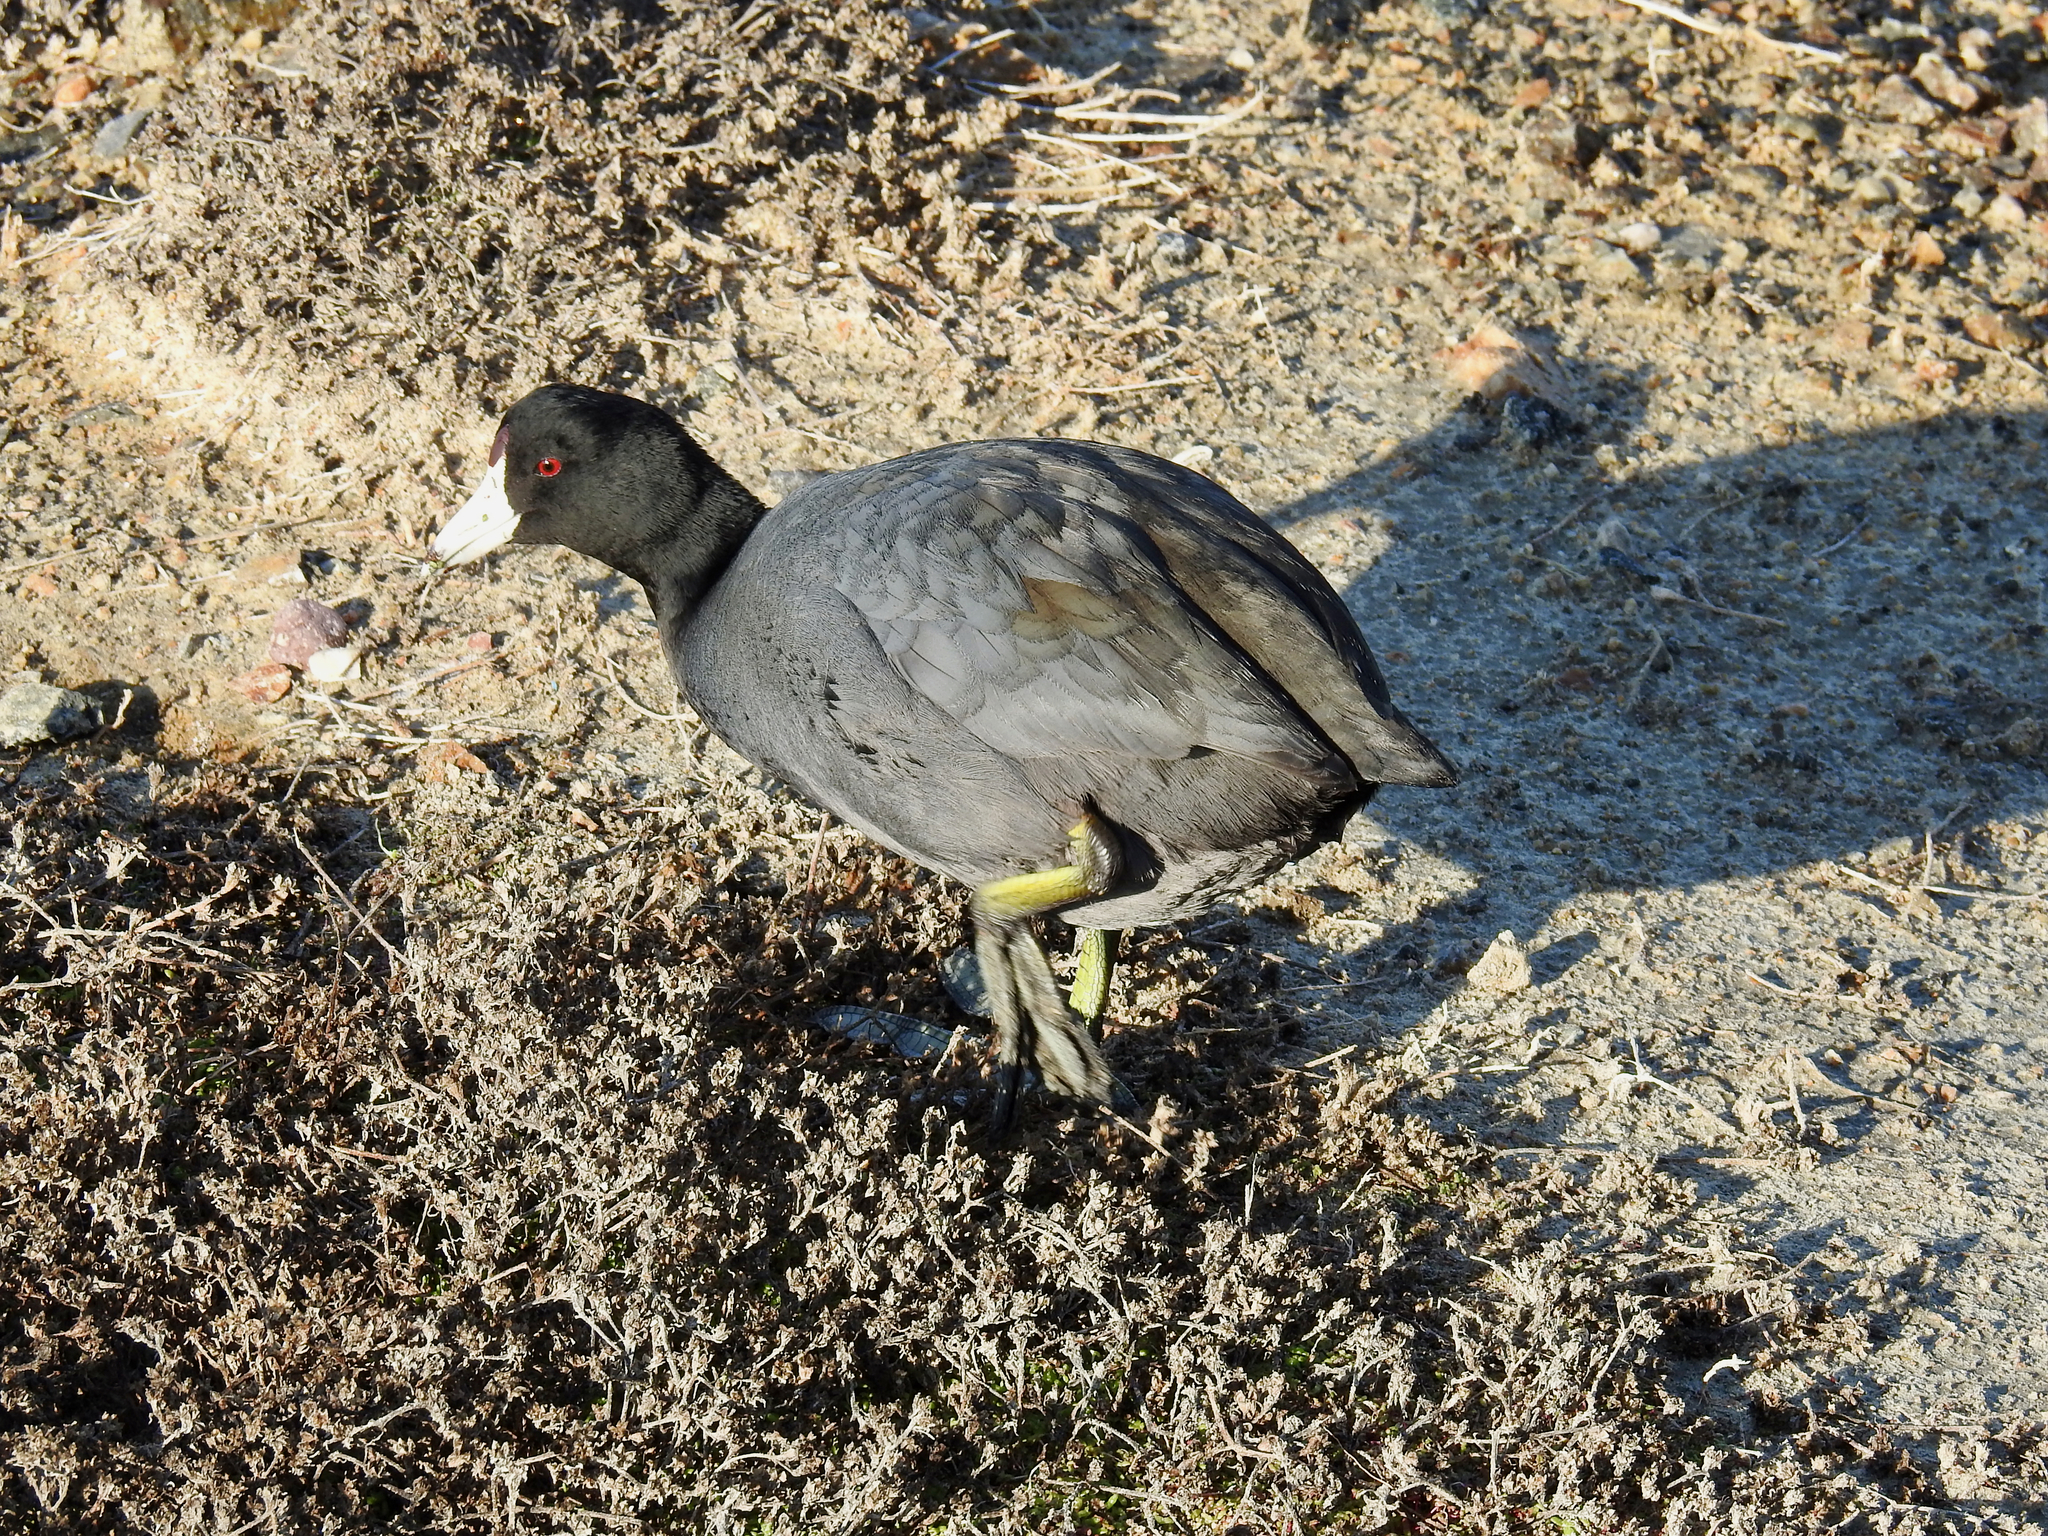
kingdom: Animalia
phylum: Chordata
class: Aves
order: Gruiformes
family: Rallidae
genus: Fulica
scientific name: Fulica americana
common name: American coot
